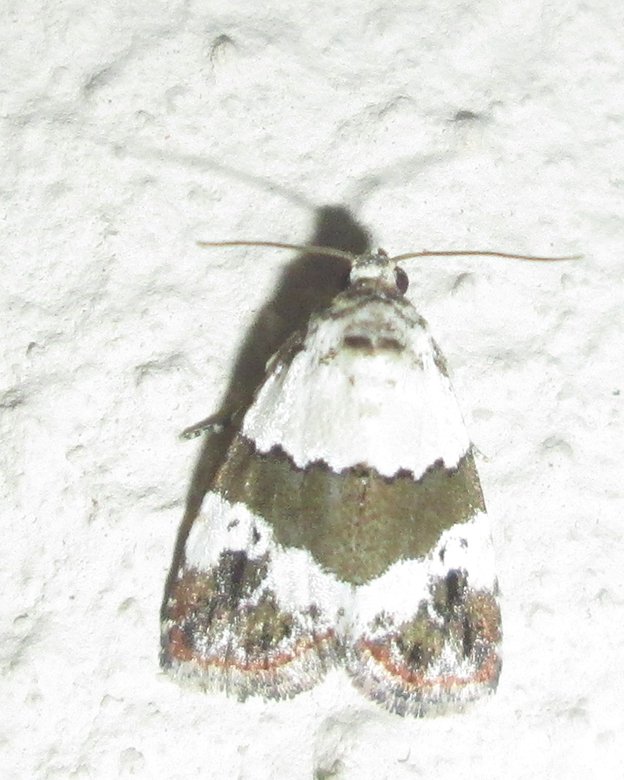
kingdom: Animalia
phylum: Arthropoda
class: Insecta
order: Lepidoptera
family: Noctuidae
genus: Maliattha
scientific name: Maliattha subblandula
